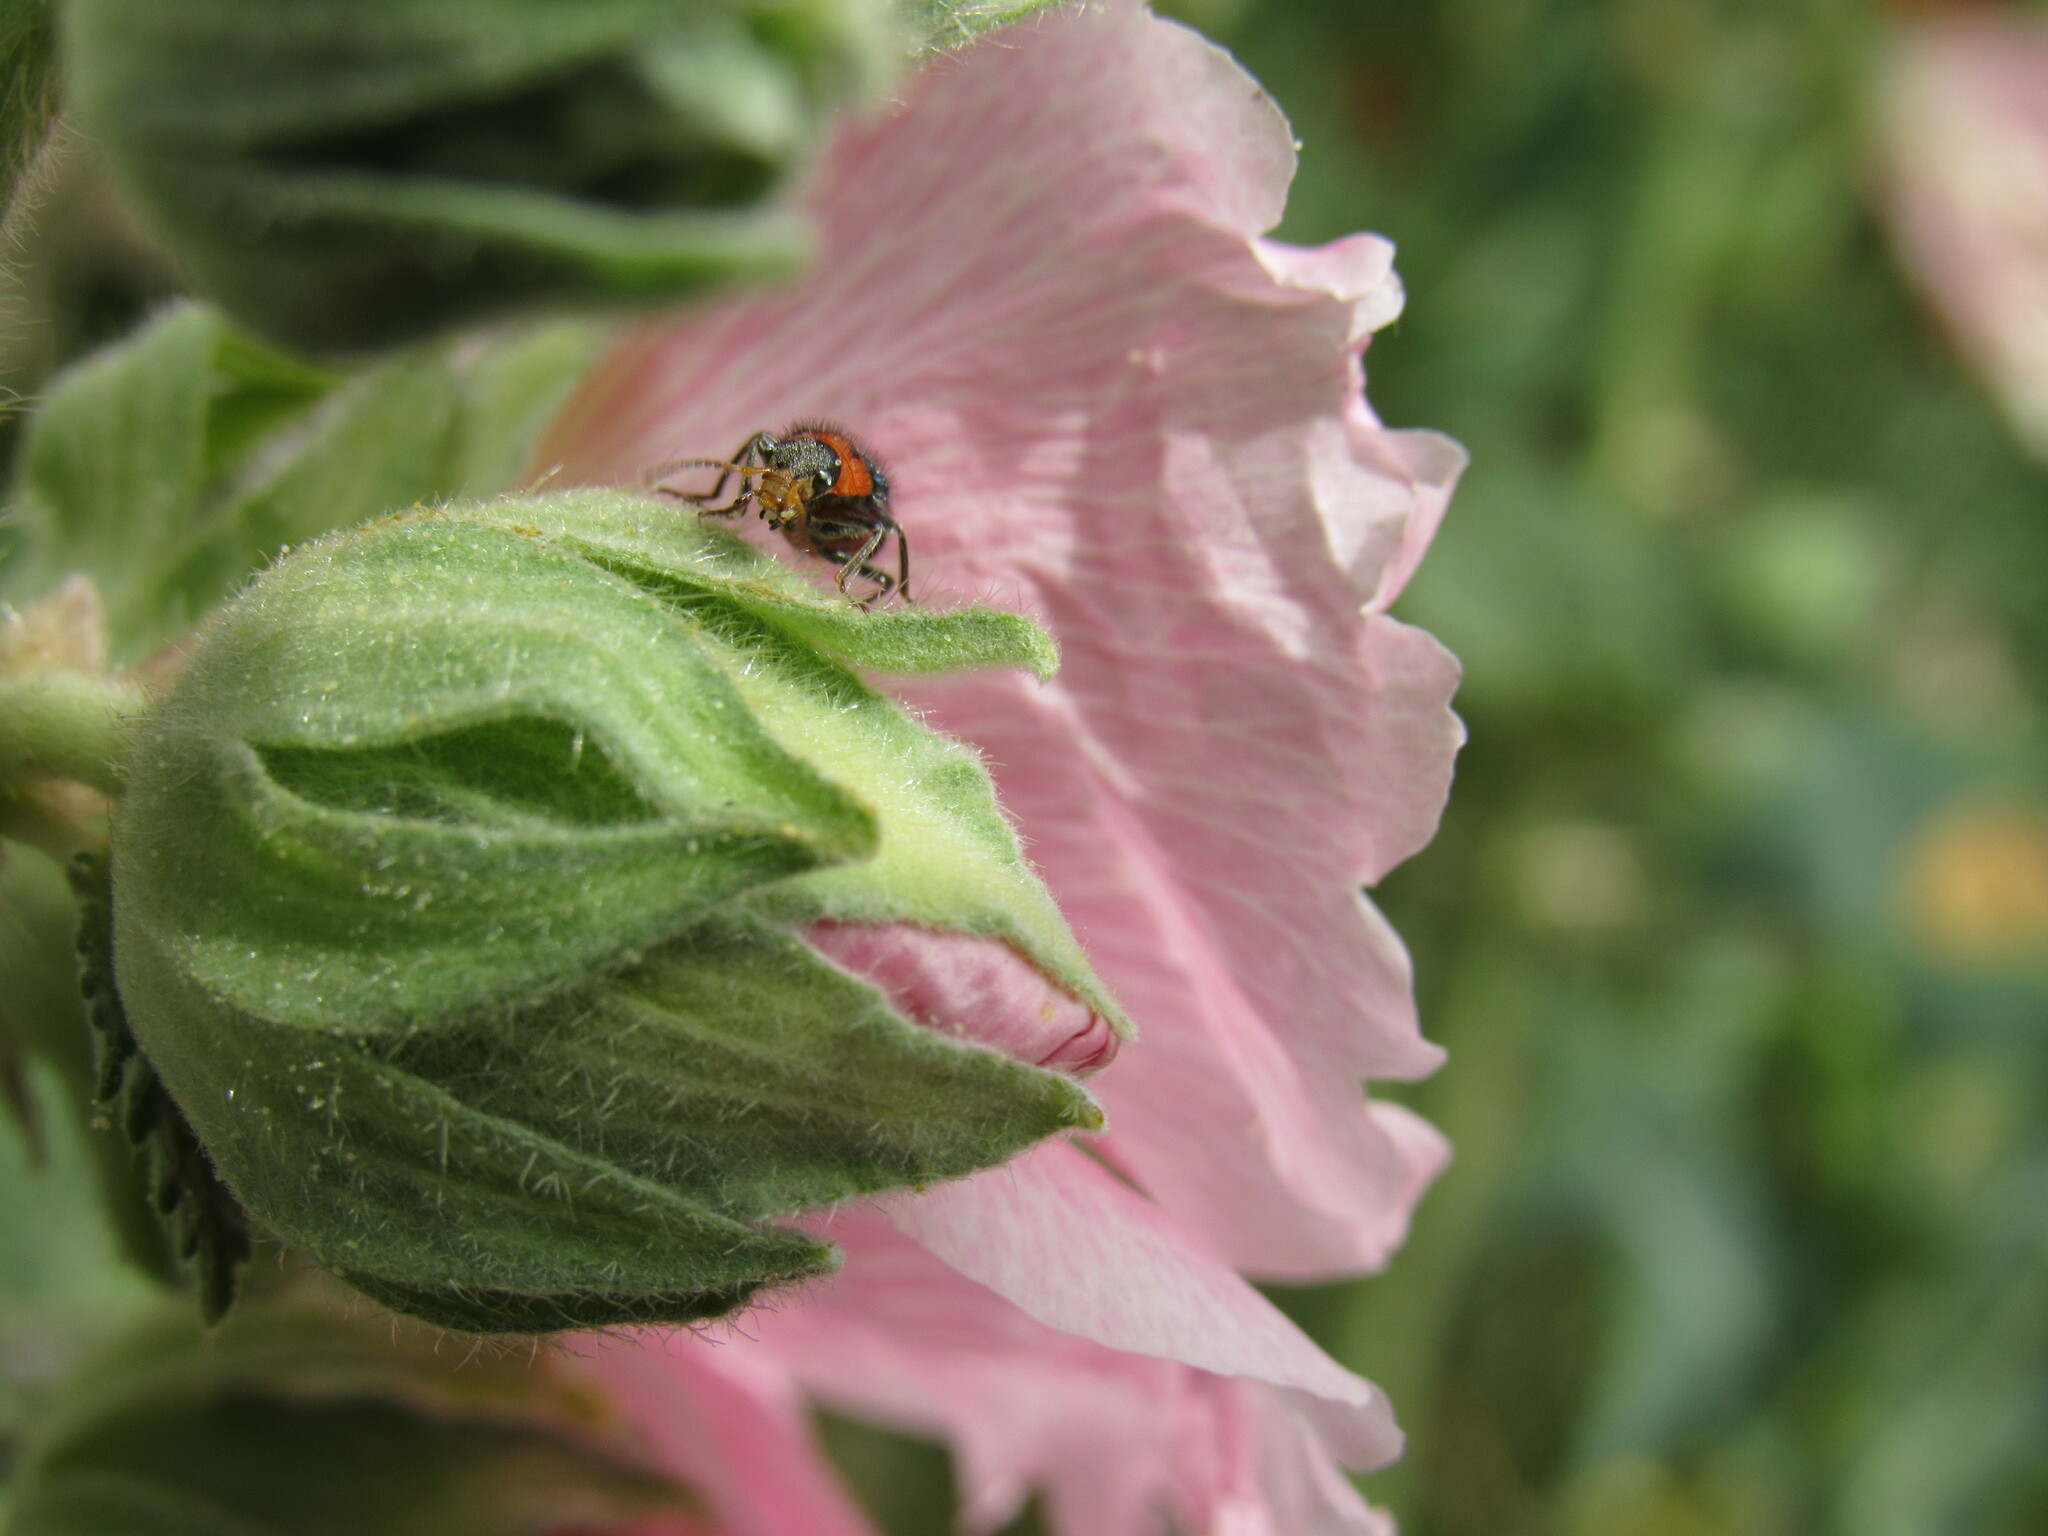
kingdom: Animalia
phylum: Arthropoda
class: Insecta
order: Coleoptera
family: Melyridae
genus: Collops
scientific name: Collops bipunctatus
